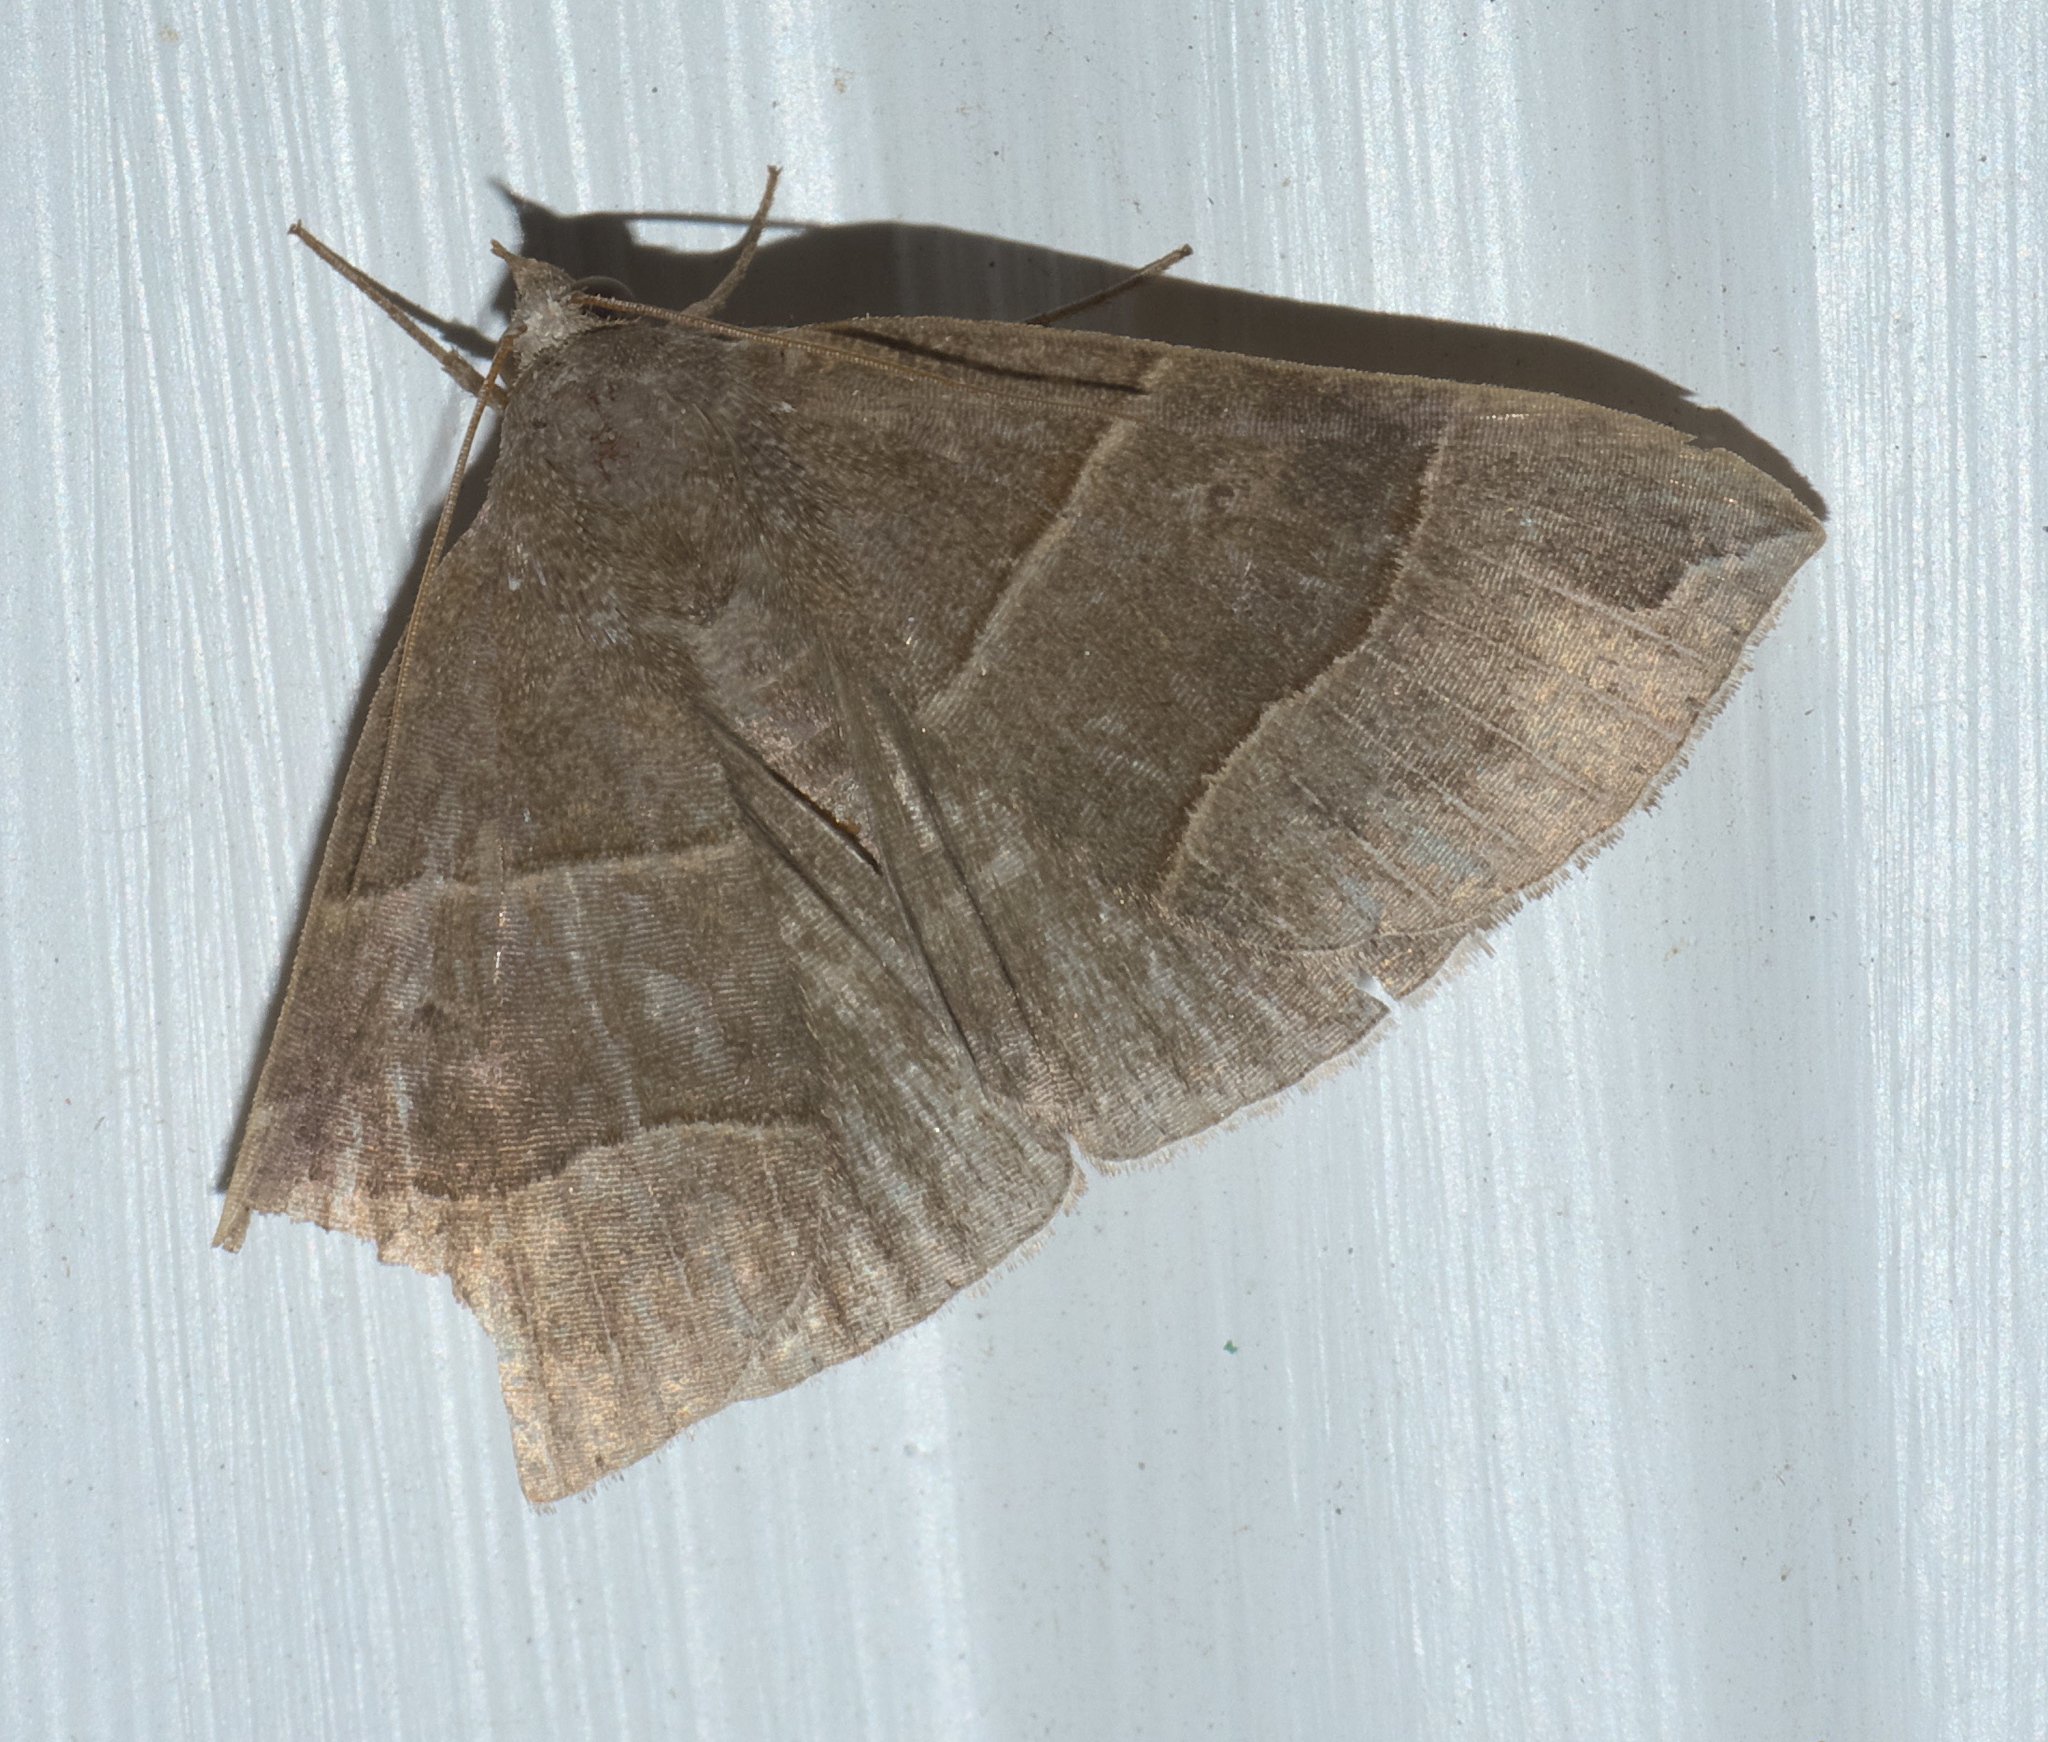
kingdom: Animalia
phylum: Arthropoda
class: Insecta
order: Lepidoptera
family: Erebidae
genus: Parallelia
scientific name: Parallelia bistriaris
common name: Maple looper moth
